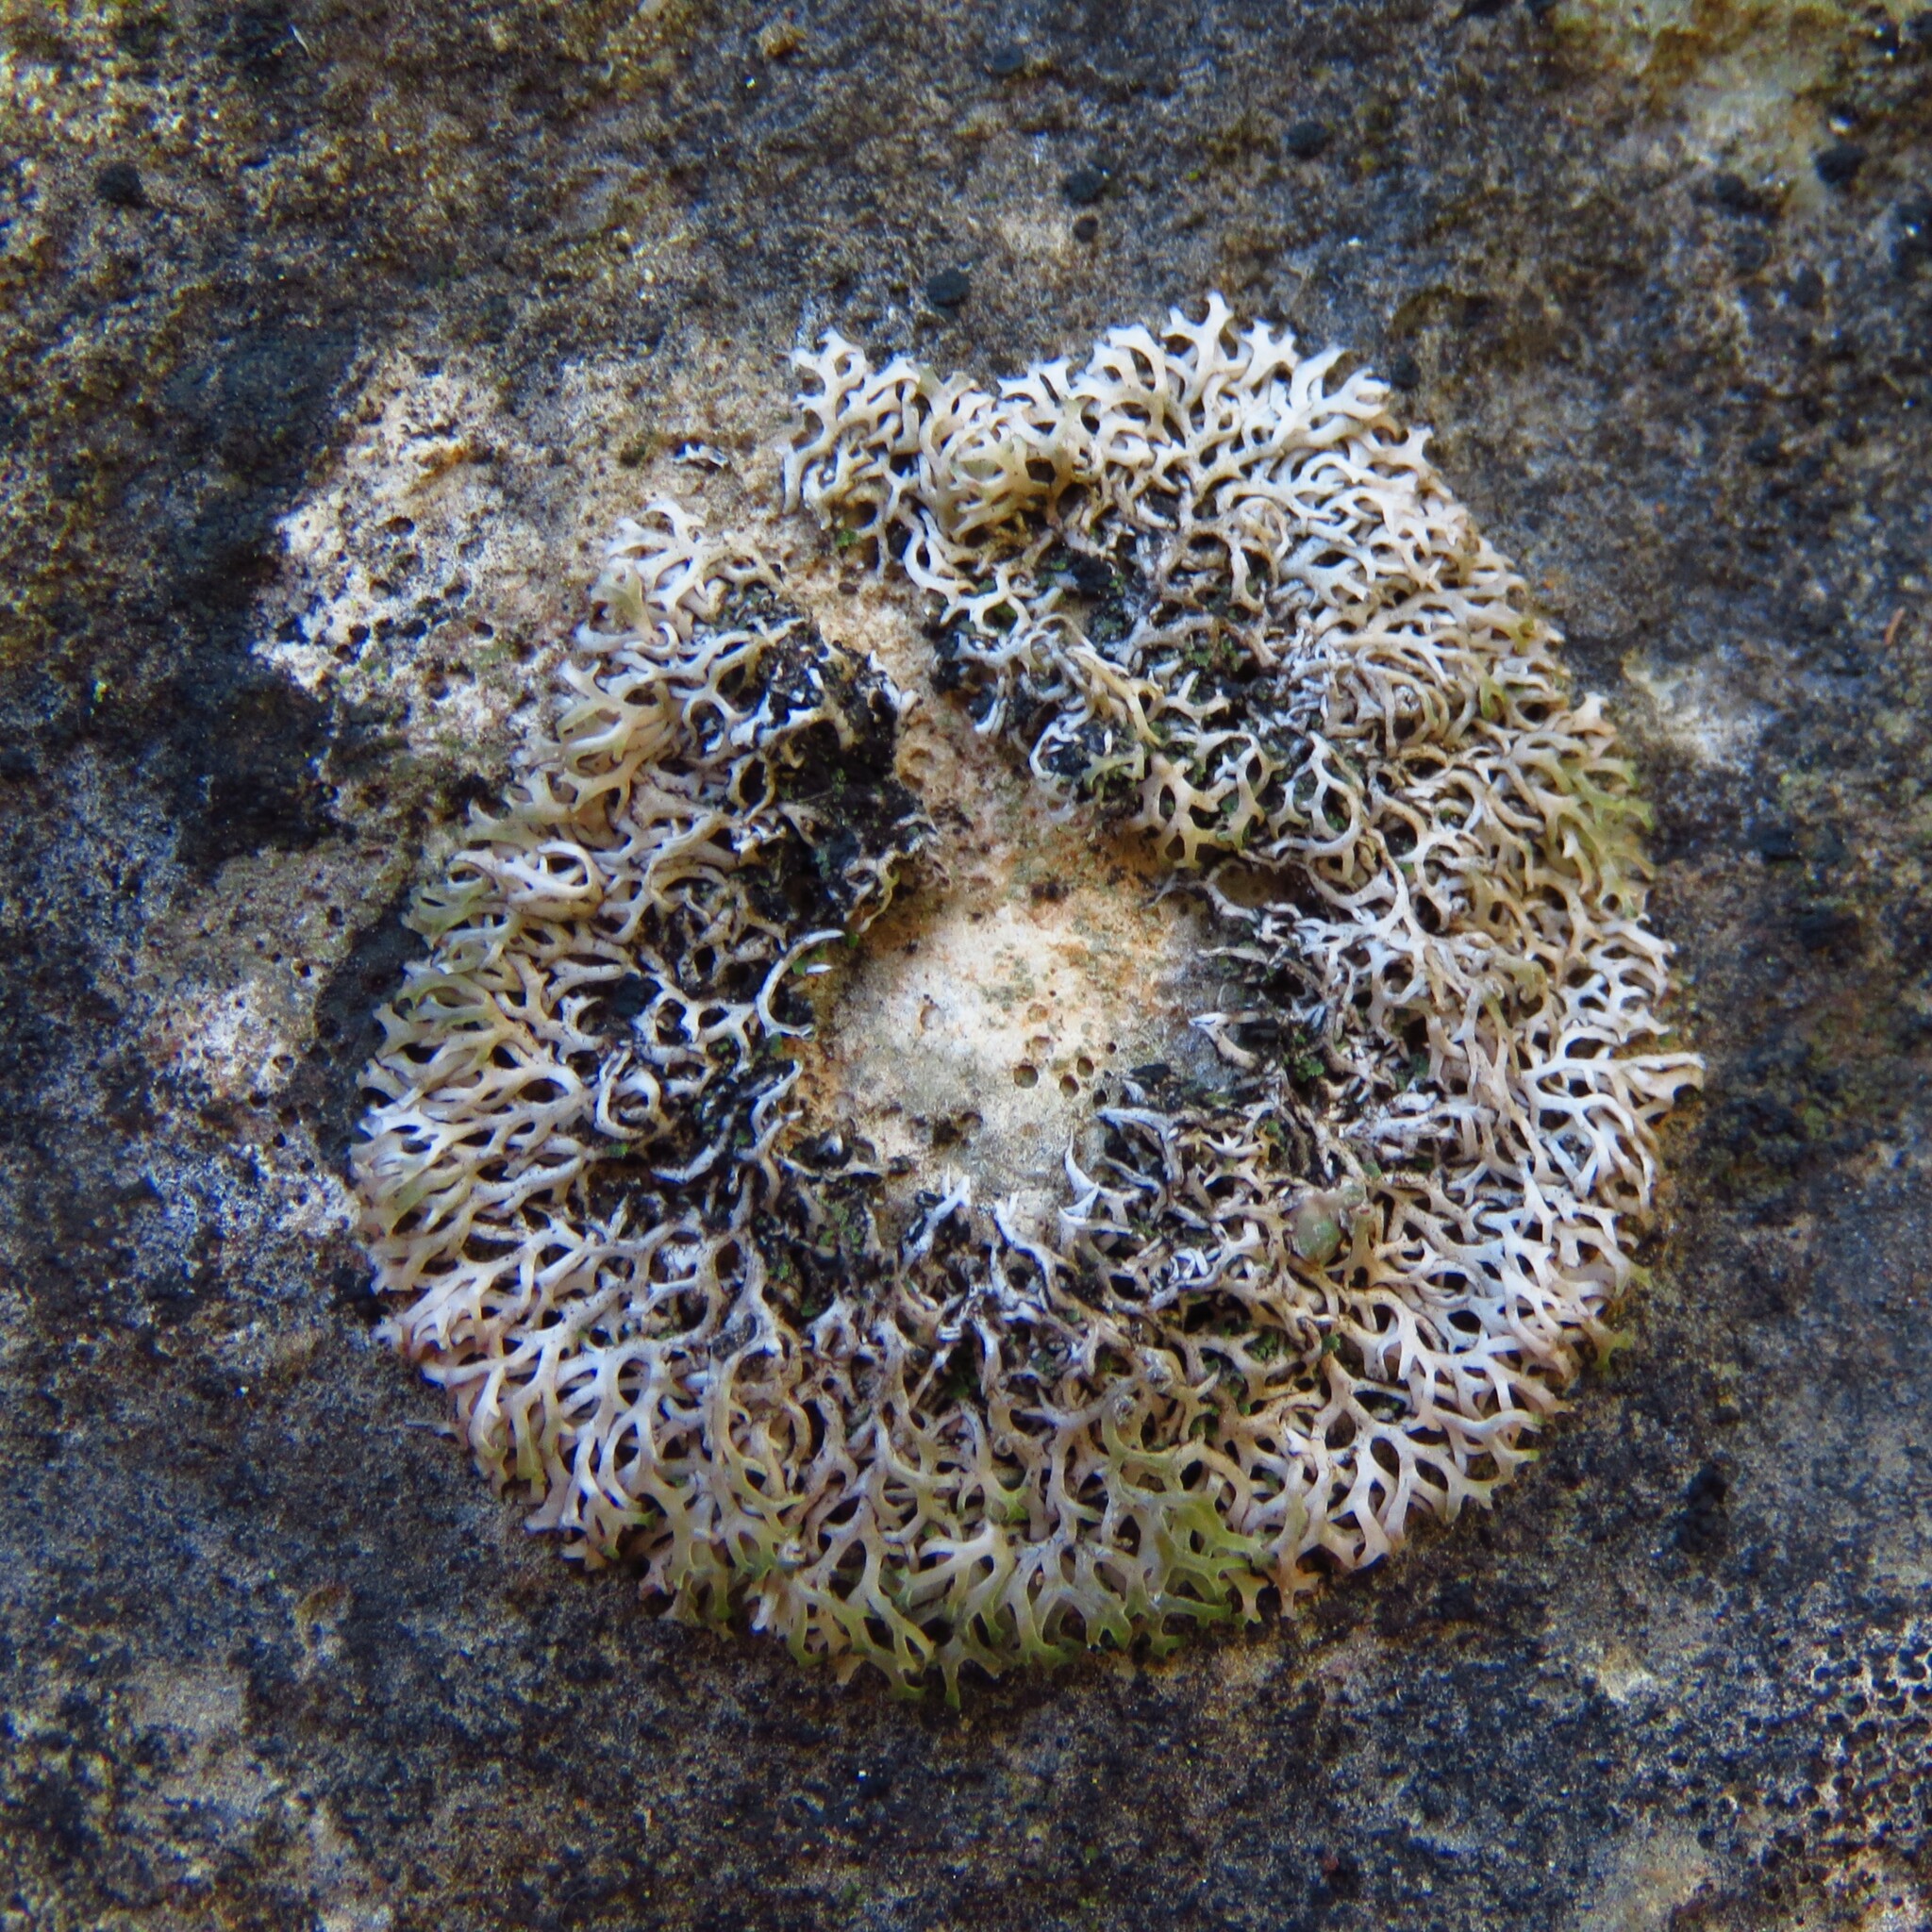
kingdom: Fungi
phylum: Ascomycota
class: Lecanoromycetes
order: Teloschistales
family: Leprocaulaceae
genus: Speerschneidera
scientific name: Speerschneidera euploca
